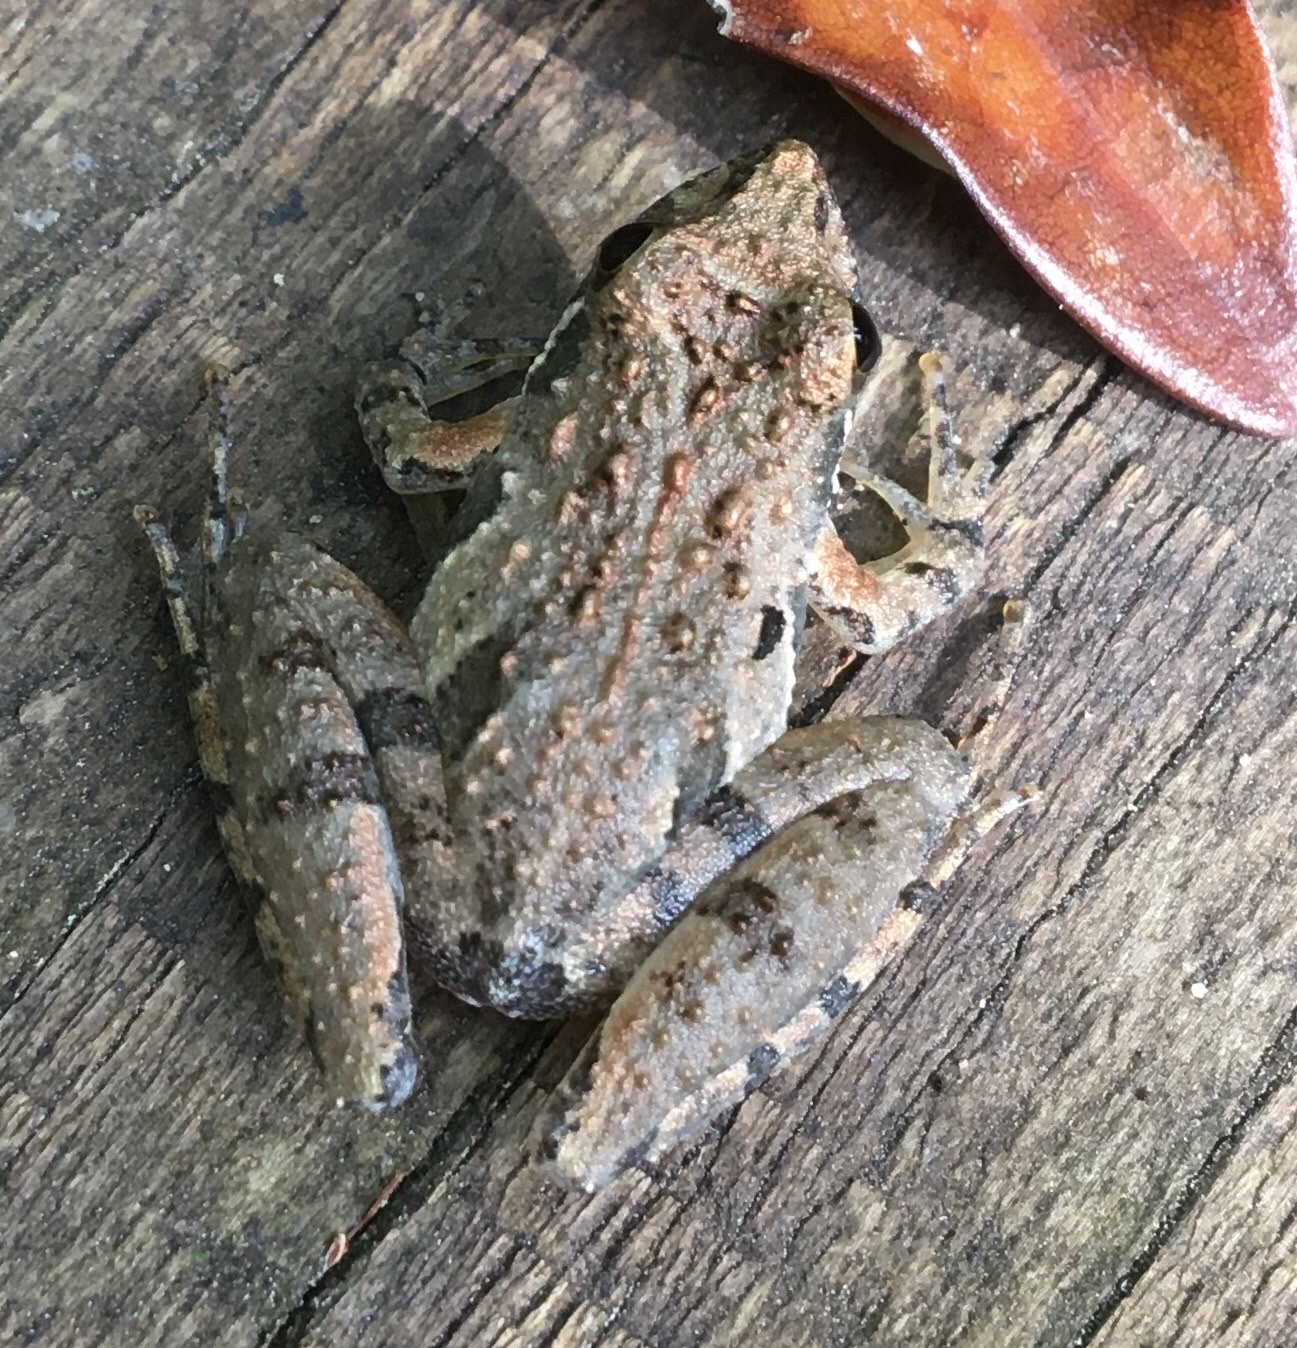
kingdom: Animalia
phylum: Chordata
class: Amphibia
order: Anura
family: Hylidae
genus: Acris
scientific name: Acris gryllus
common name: Southern cricket frog
